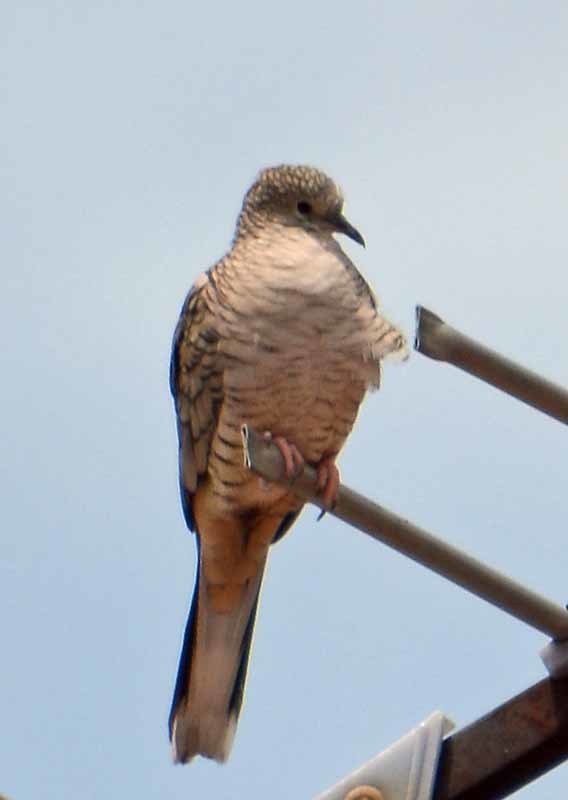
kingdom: Animalia
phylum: Chordata
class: Aves
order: Columbiformes
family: Columbidae
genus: Columbina
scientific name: Columbina inca
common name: Inca dove
